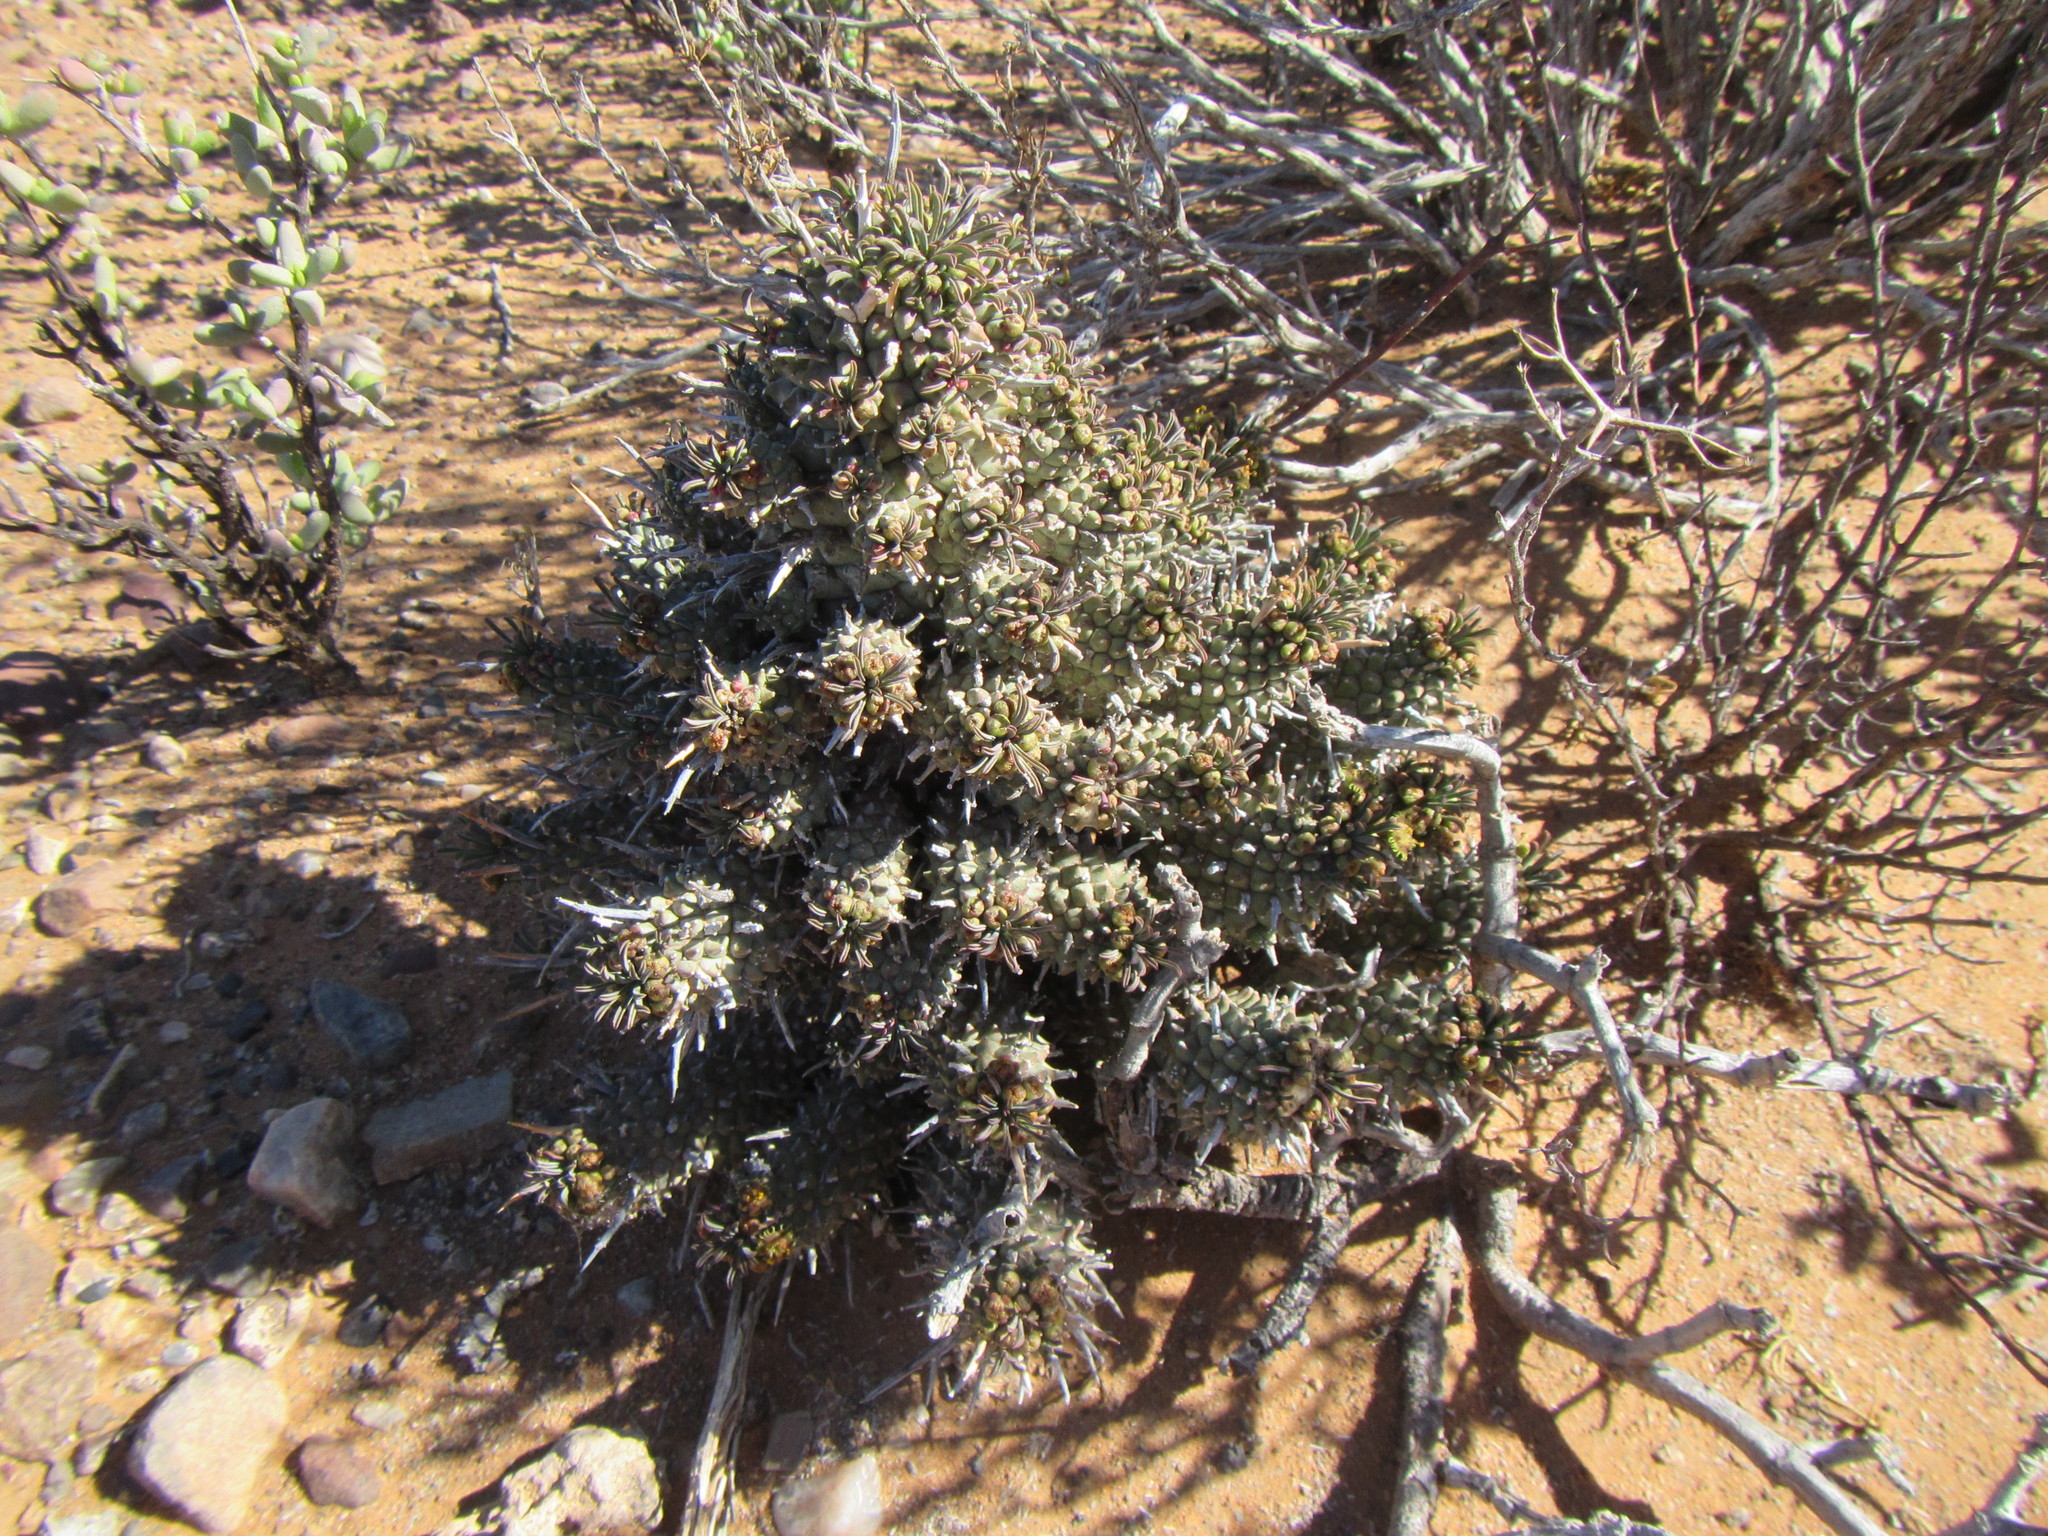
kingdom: Plantae
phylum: Tracheophyta
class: Magnoliopsida
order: Malpighiales
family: Euphorbiaceae
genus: Euphorbia
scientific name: Euphorbia multiceps
